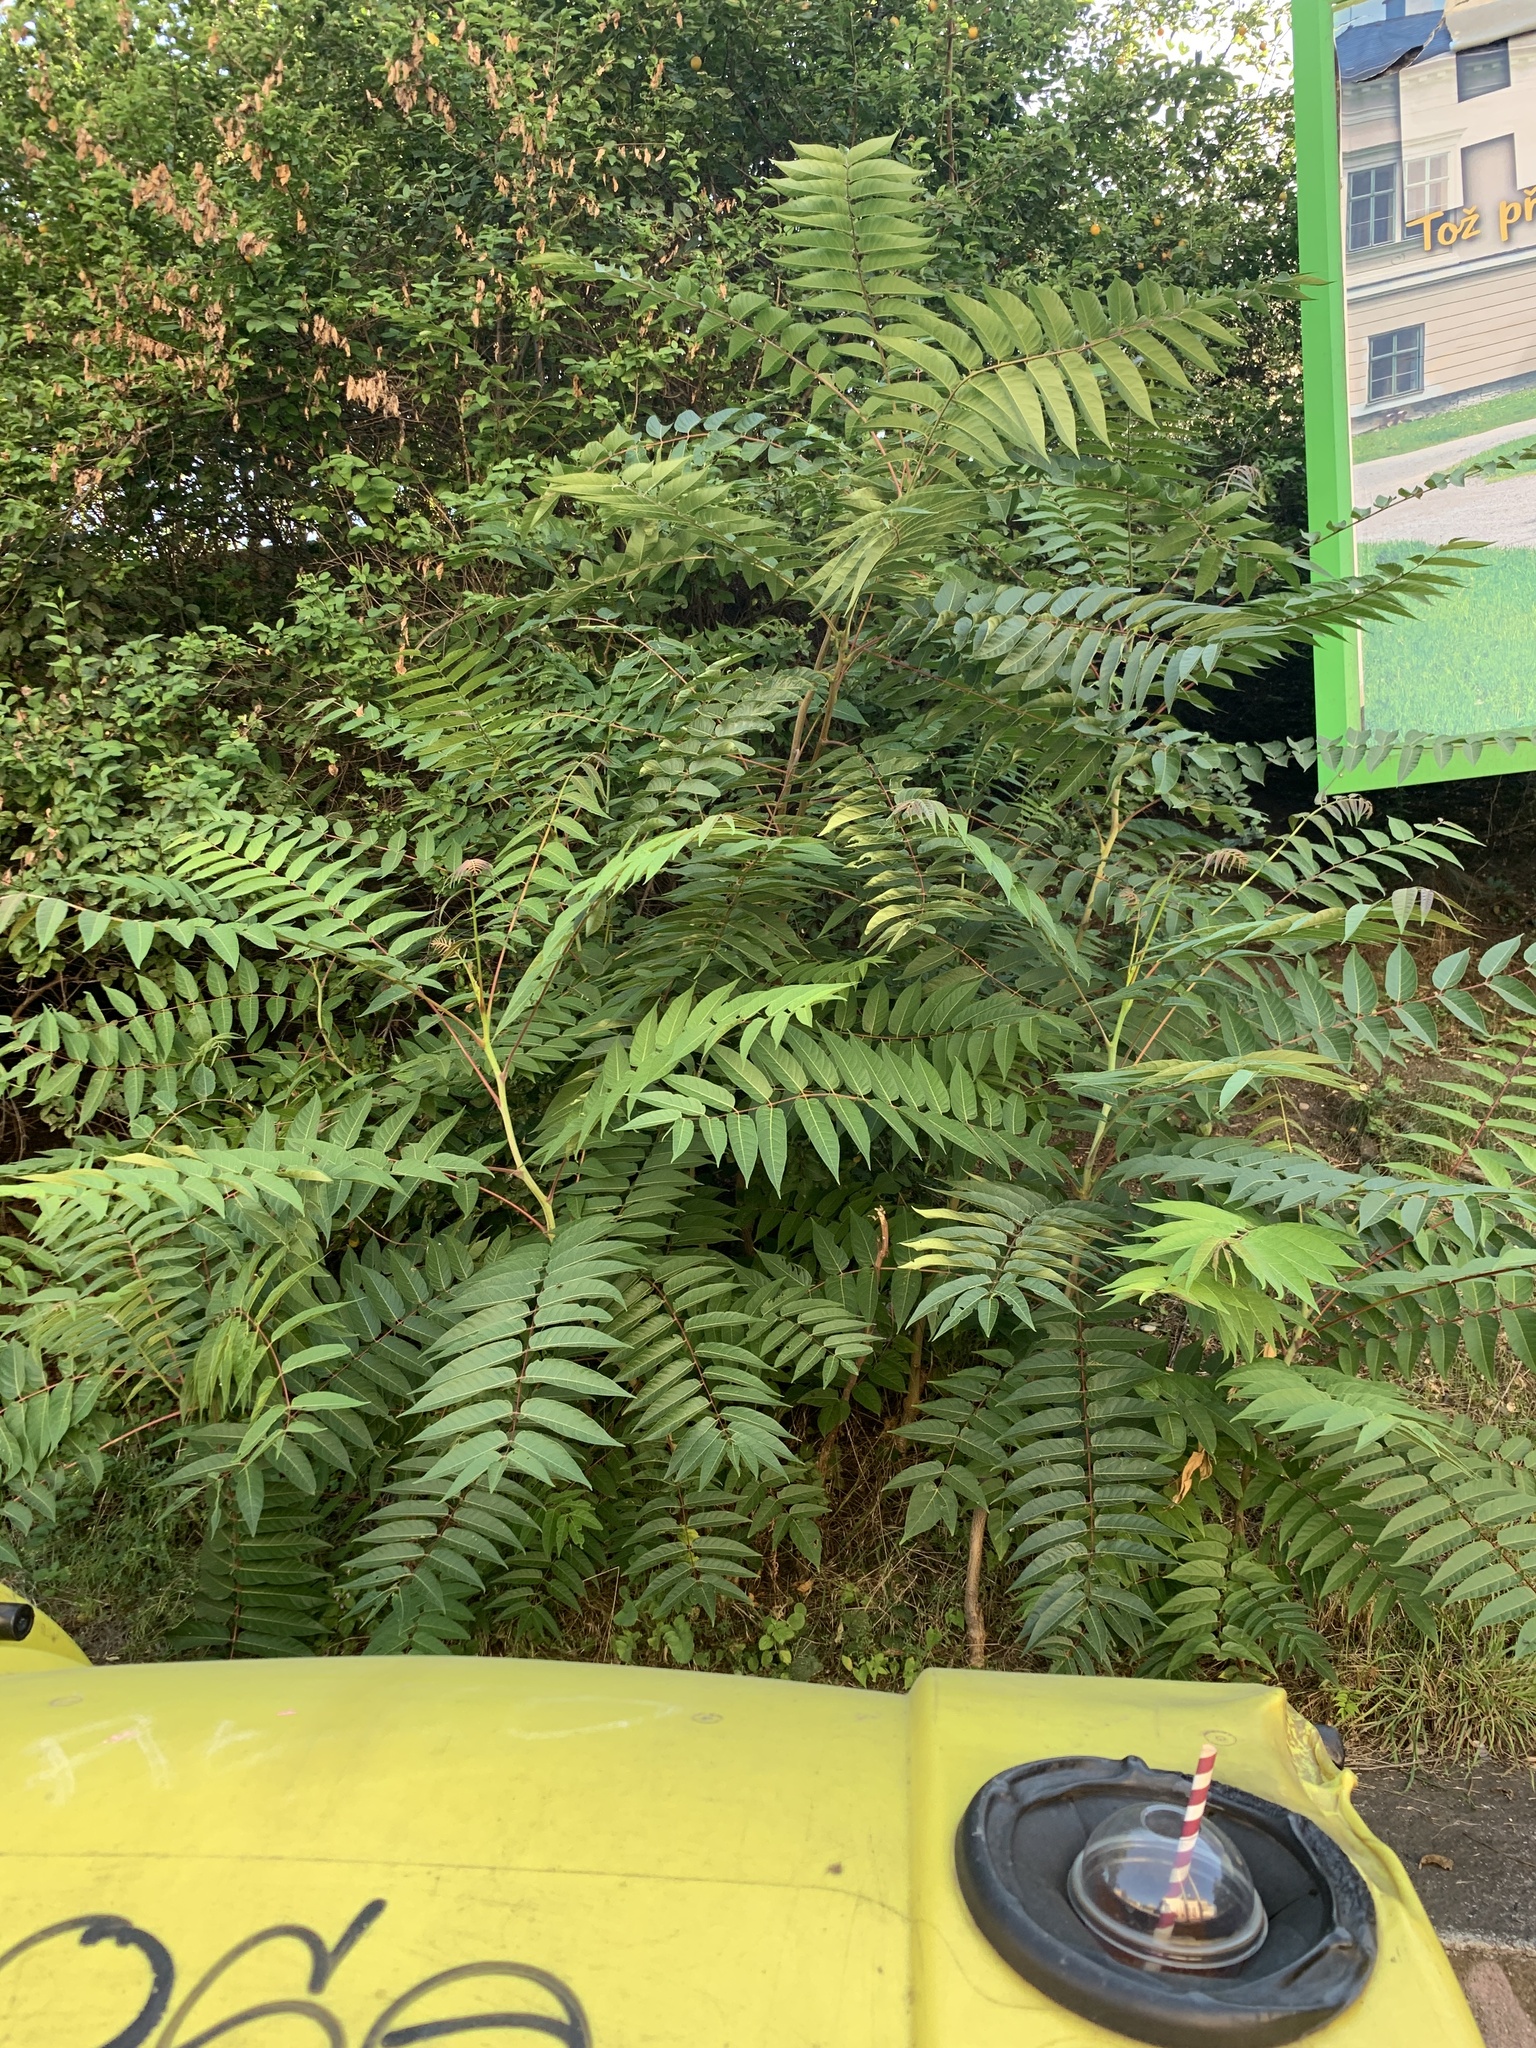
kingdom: Plantae
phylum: Tracheophyta
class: Magnoliopsida
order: Sapindales
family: Simaroubaceae
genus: Ailanthus
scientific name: Ailanthus altissima
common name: Tree-of-heaven
